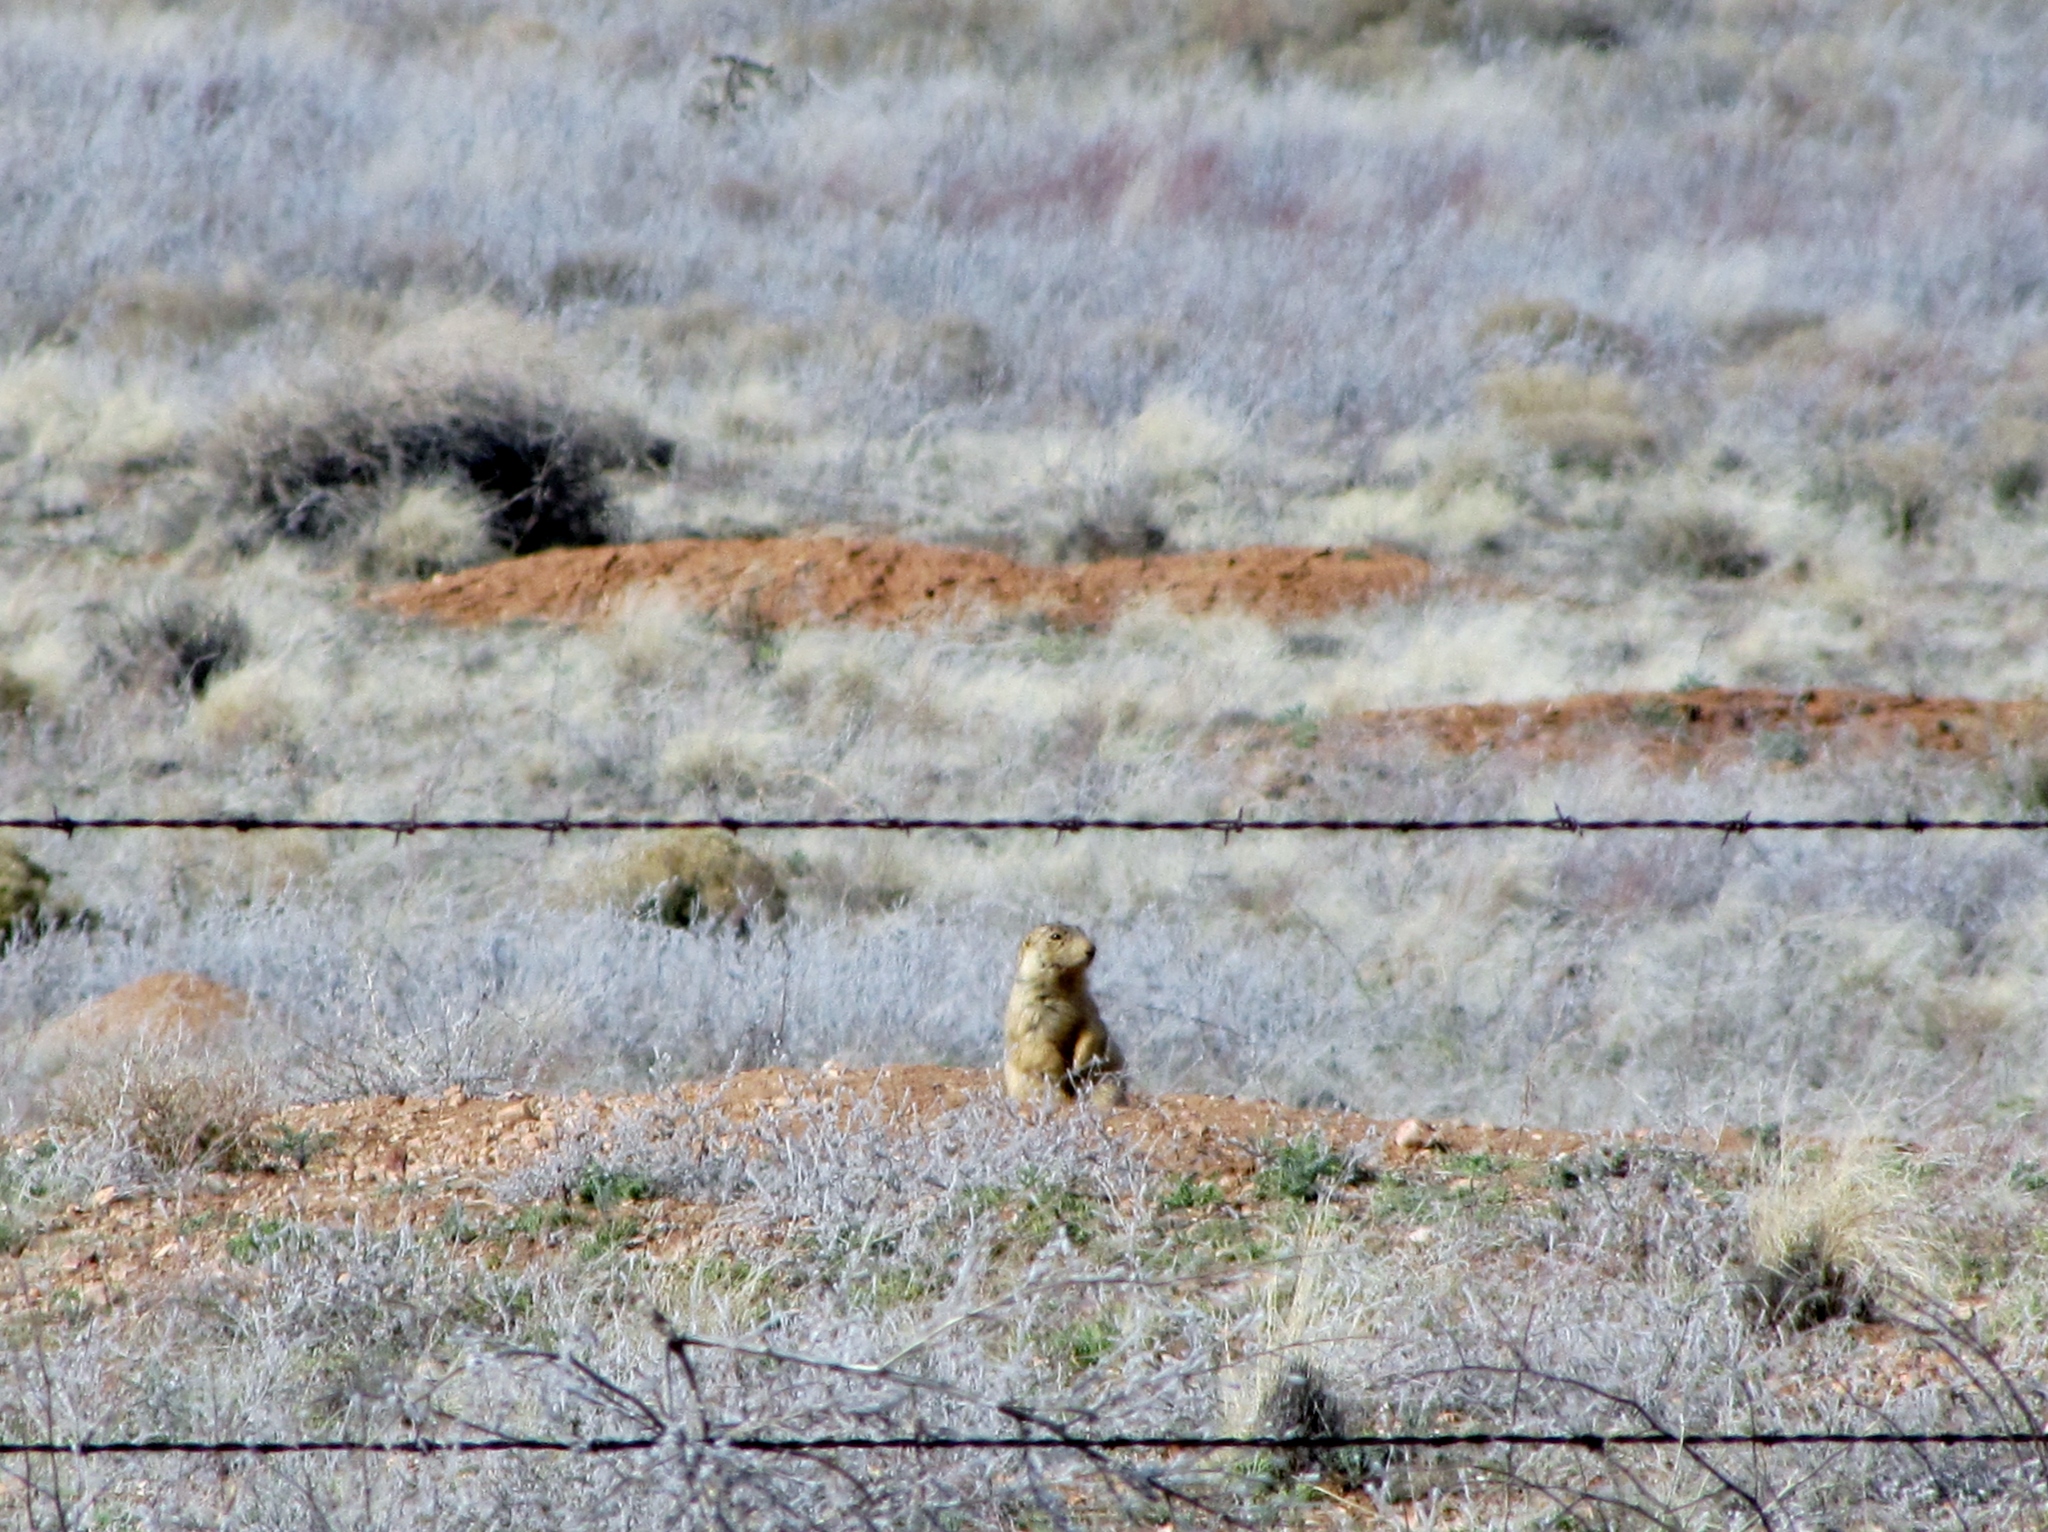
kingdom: Animalia
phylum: Chordata
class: Mammalia
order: Rodentia
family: Sciuridae
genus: Cynomys
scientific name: Cynomys gunnisoni
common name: Gunnison's prairie dog
